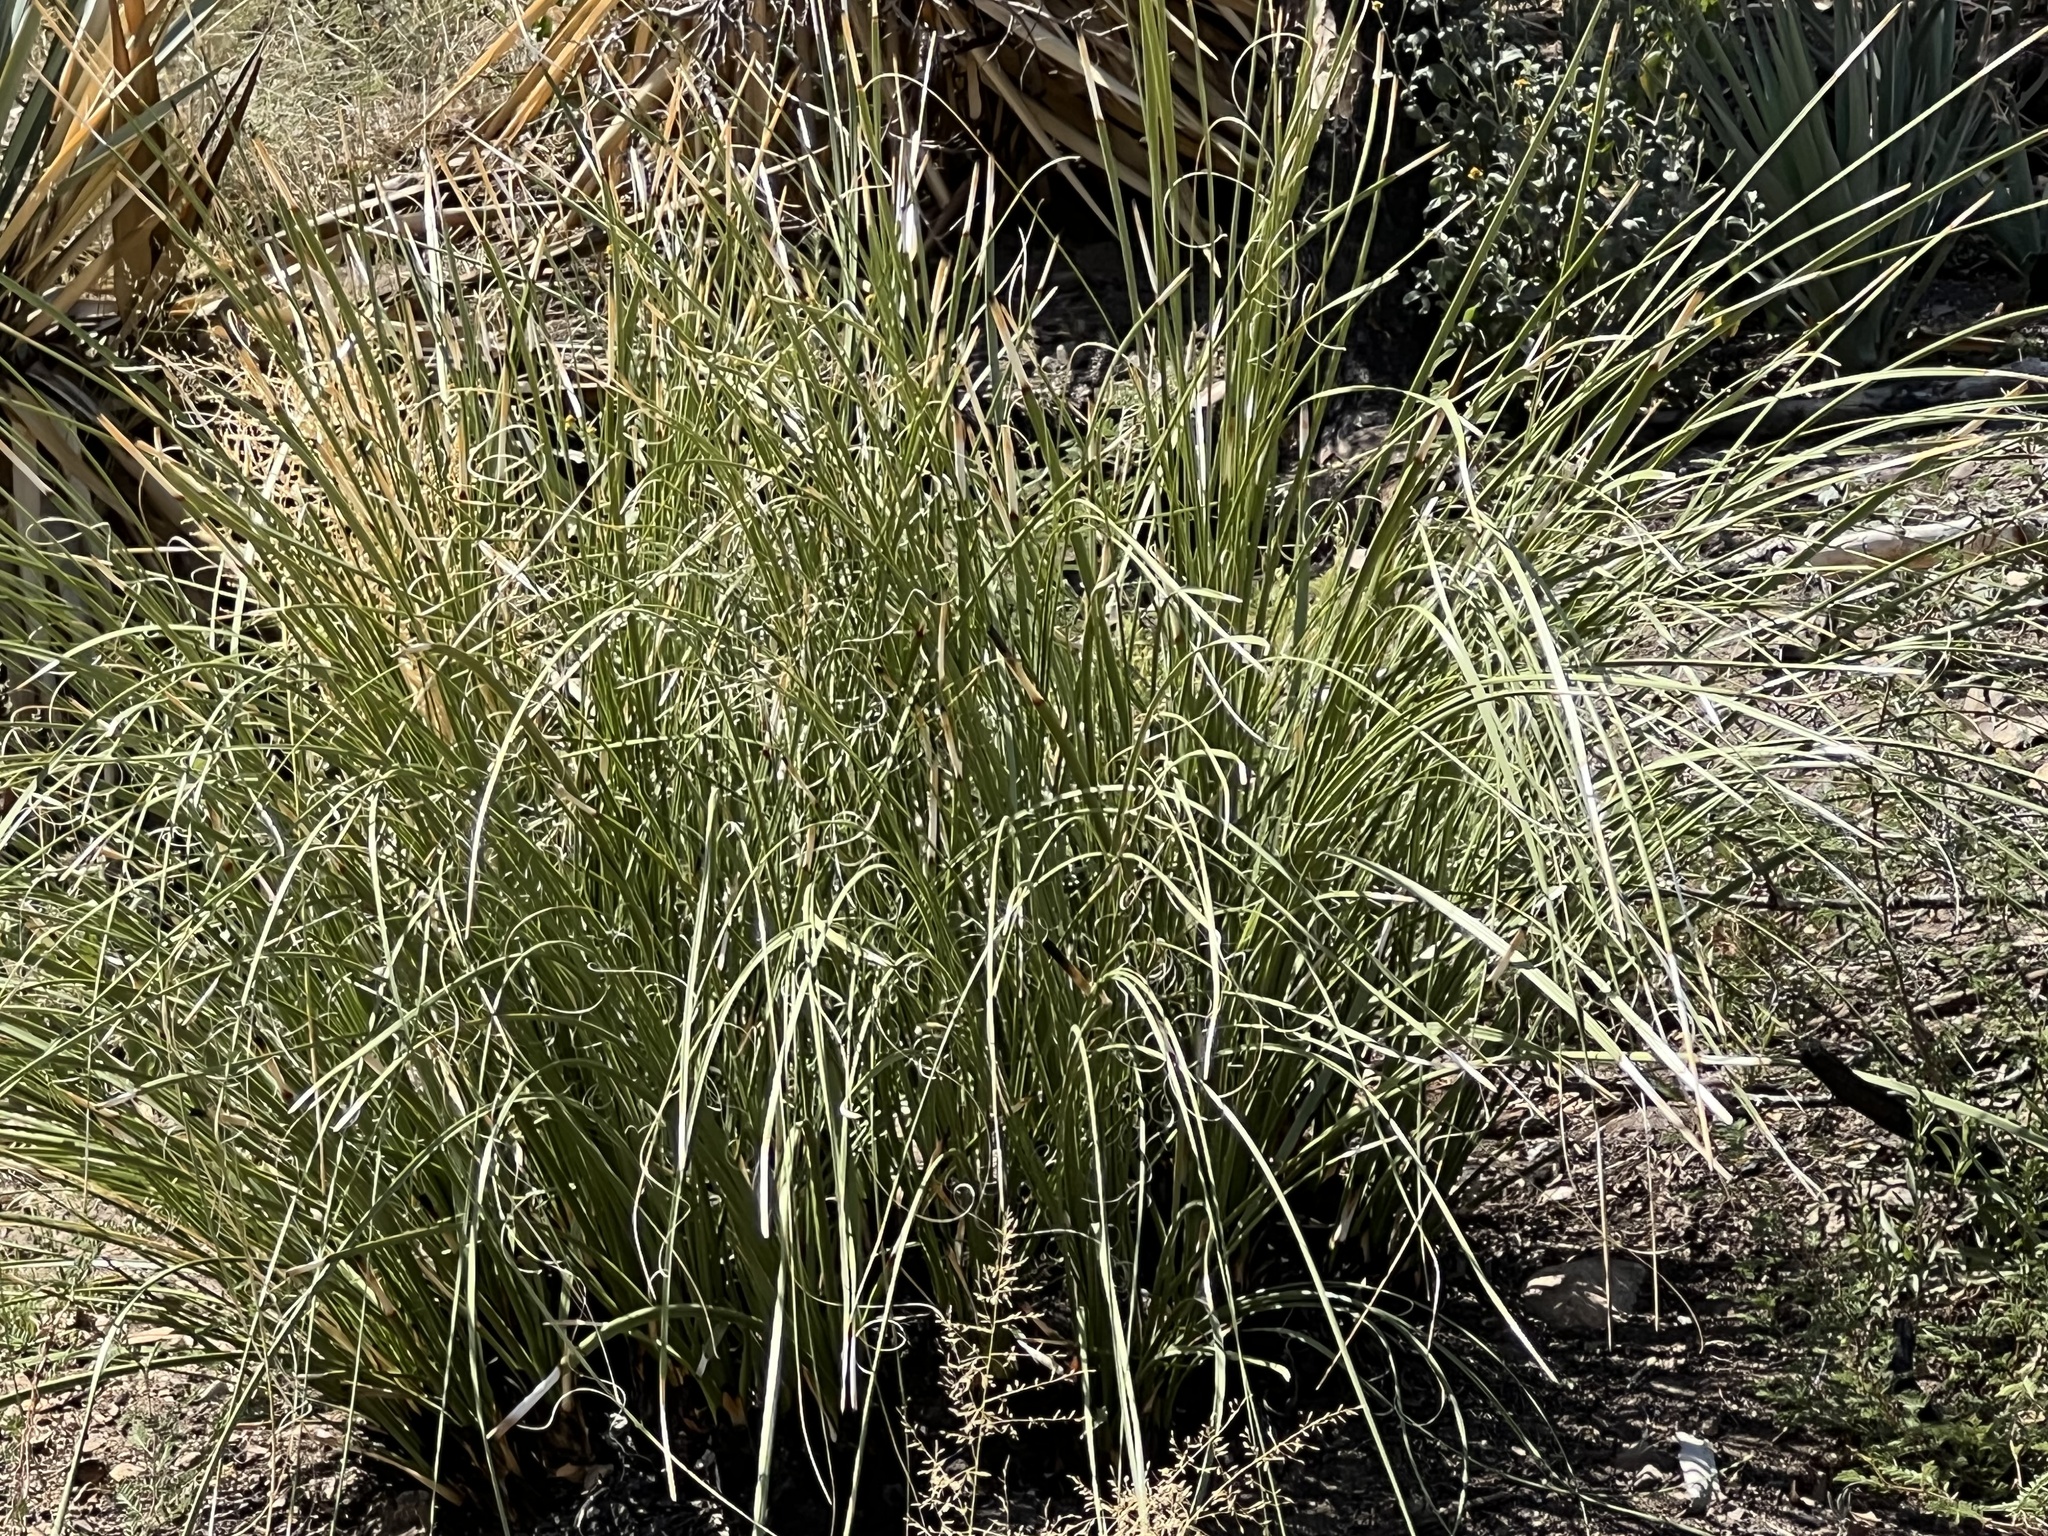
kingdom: Plantae
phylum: Tracheophyta
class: Liliopsida
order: Asparagales
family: Asparagaceae
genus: Nolina
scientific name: Nolina microcarpa
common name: Bear-grass
